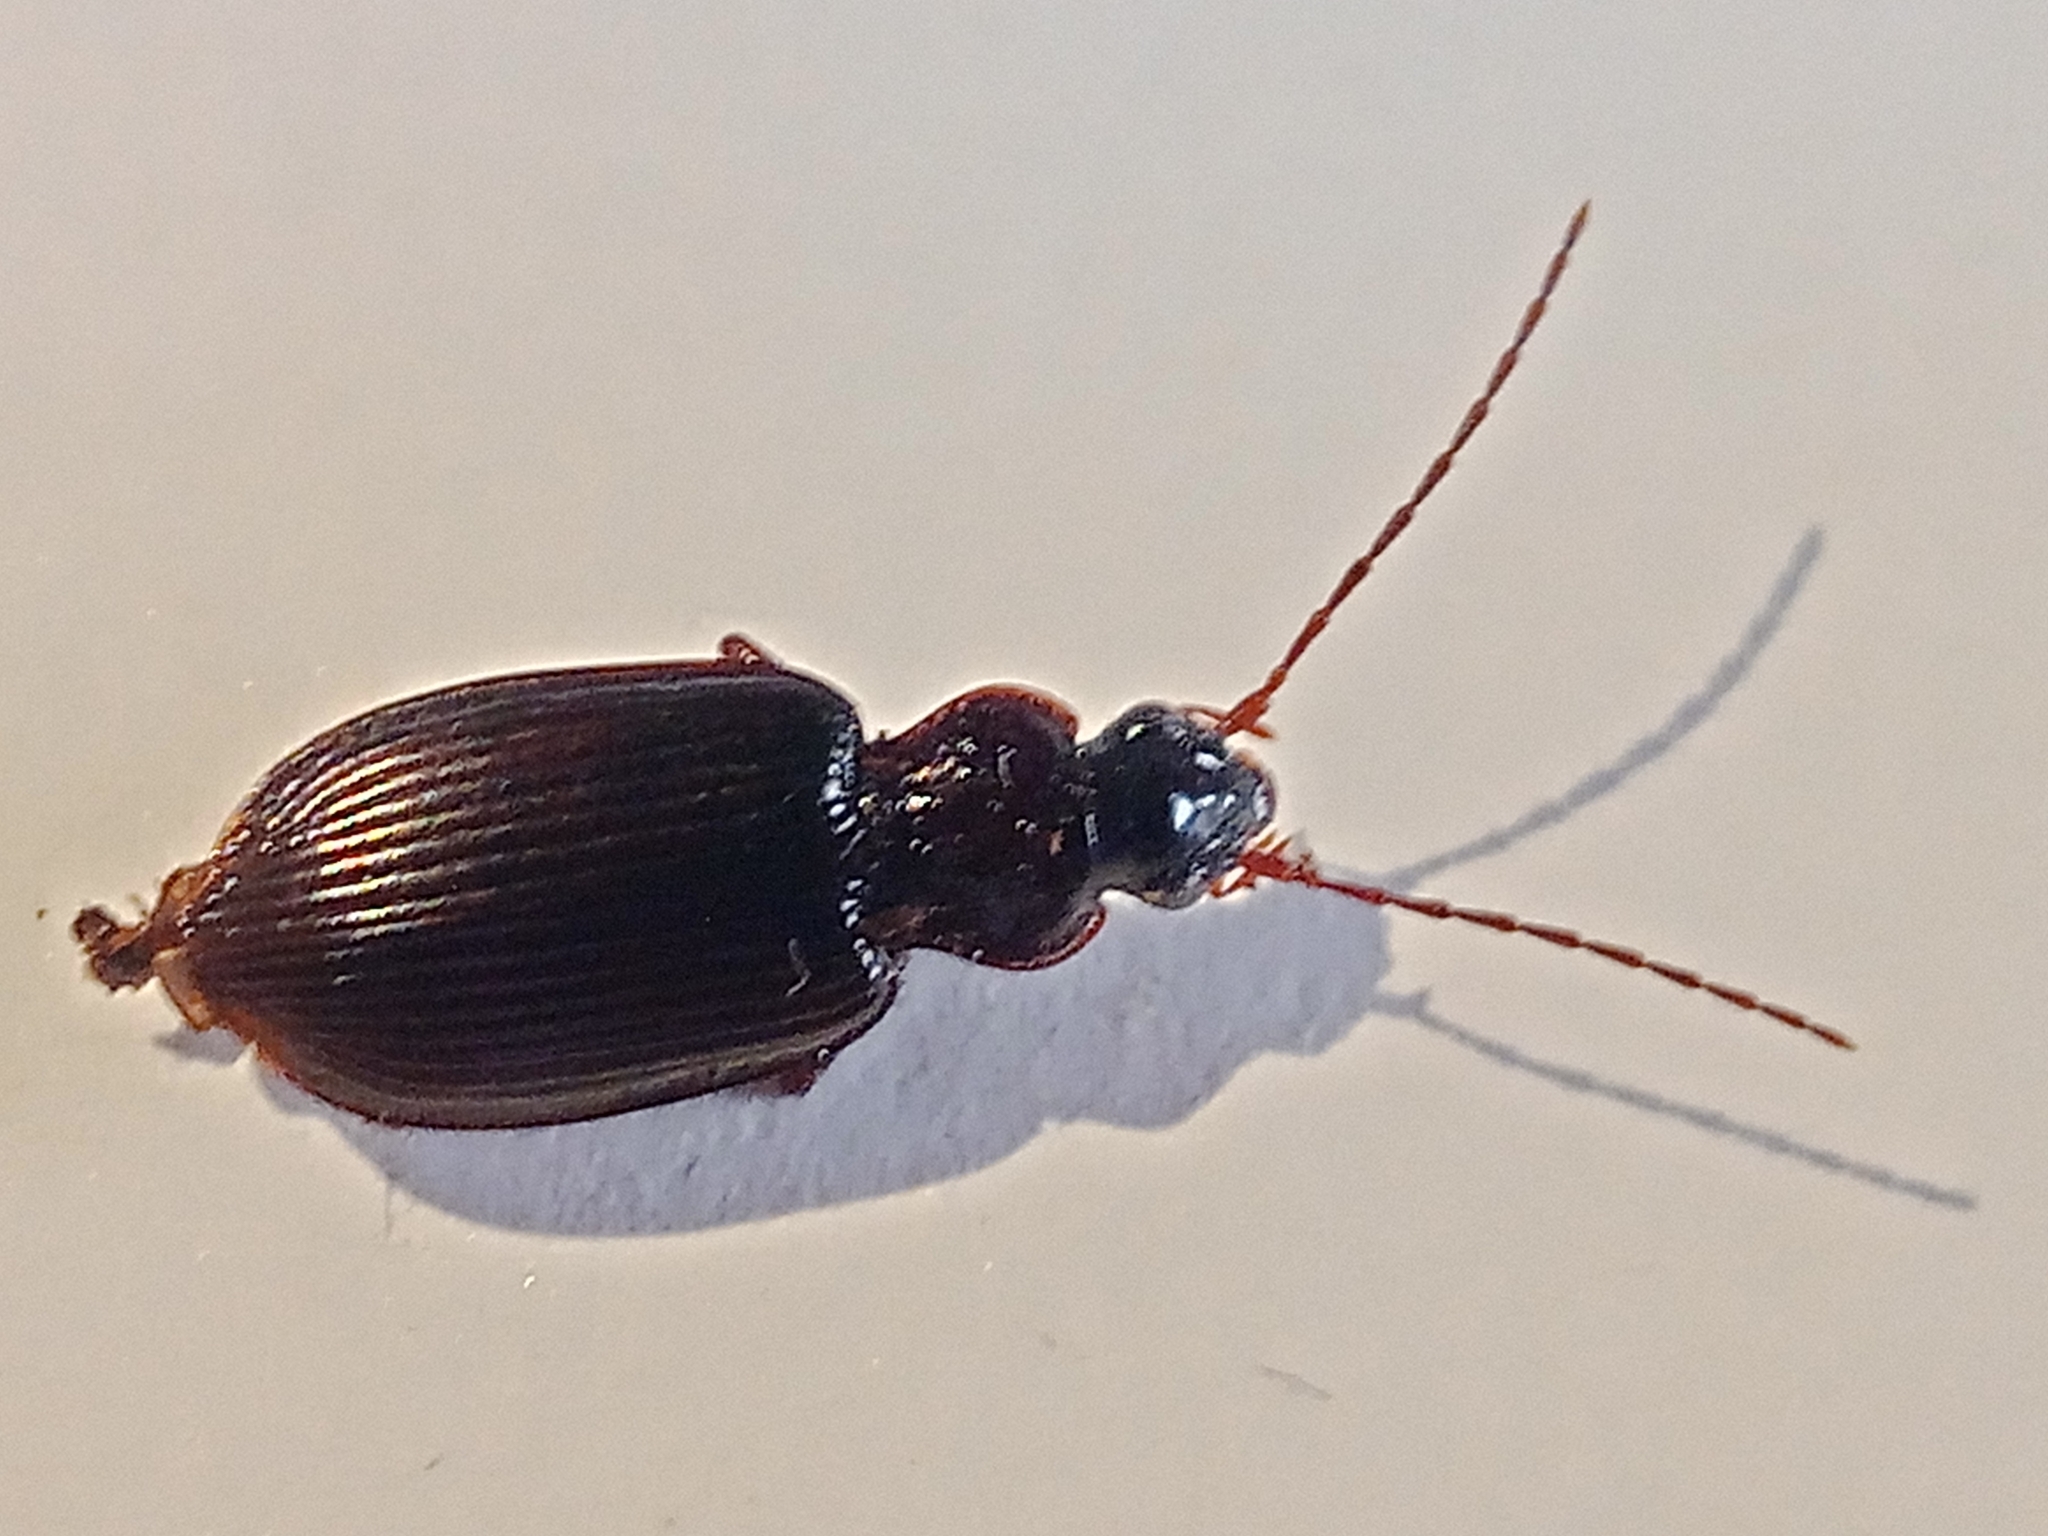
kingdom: Animalia
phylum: Arthropoda
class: Insecta
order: Coleoptera
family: Carabidae
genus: Platynus
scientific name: Platynus assimilis
